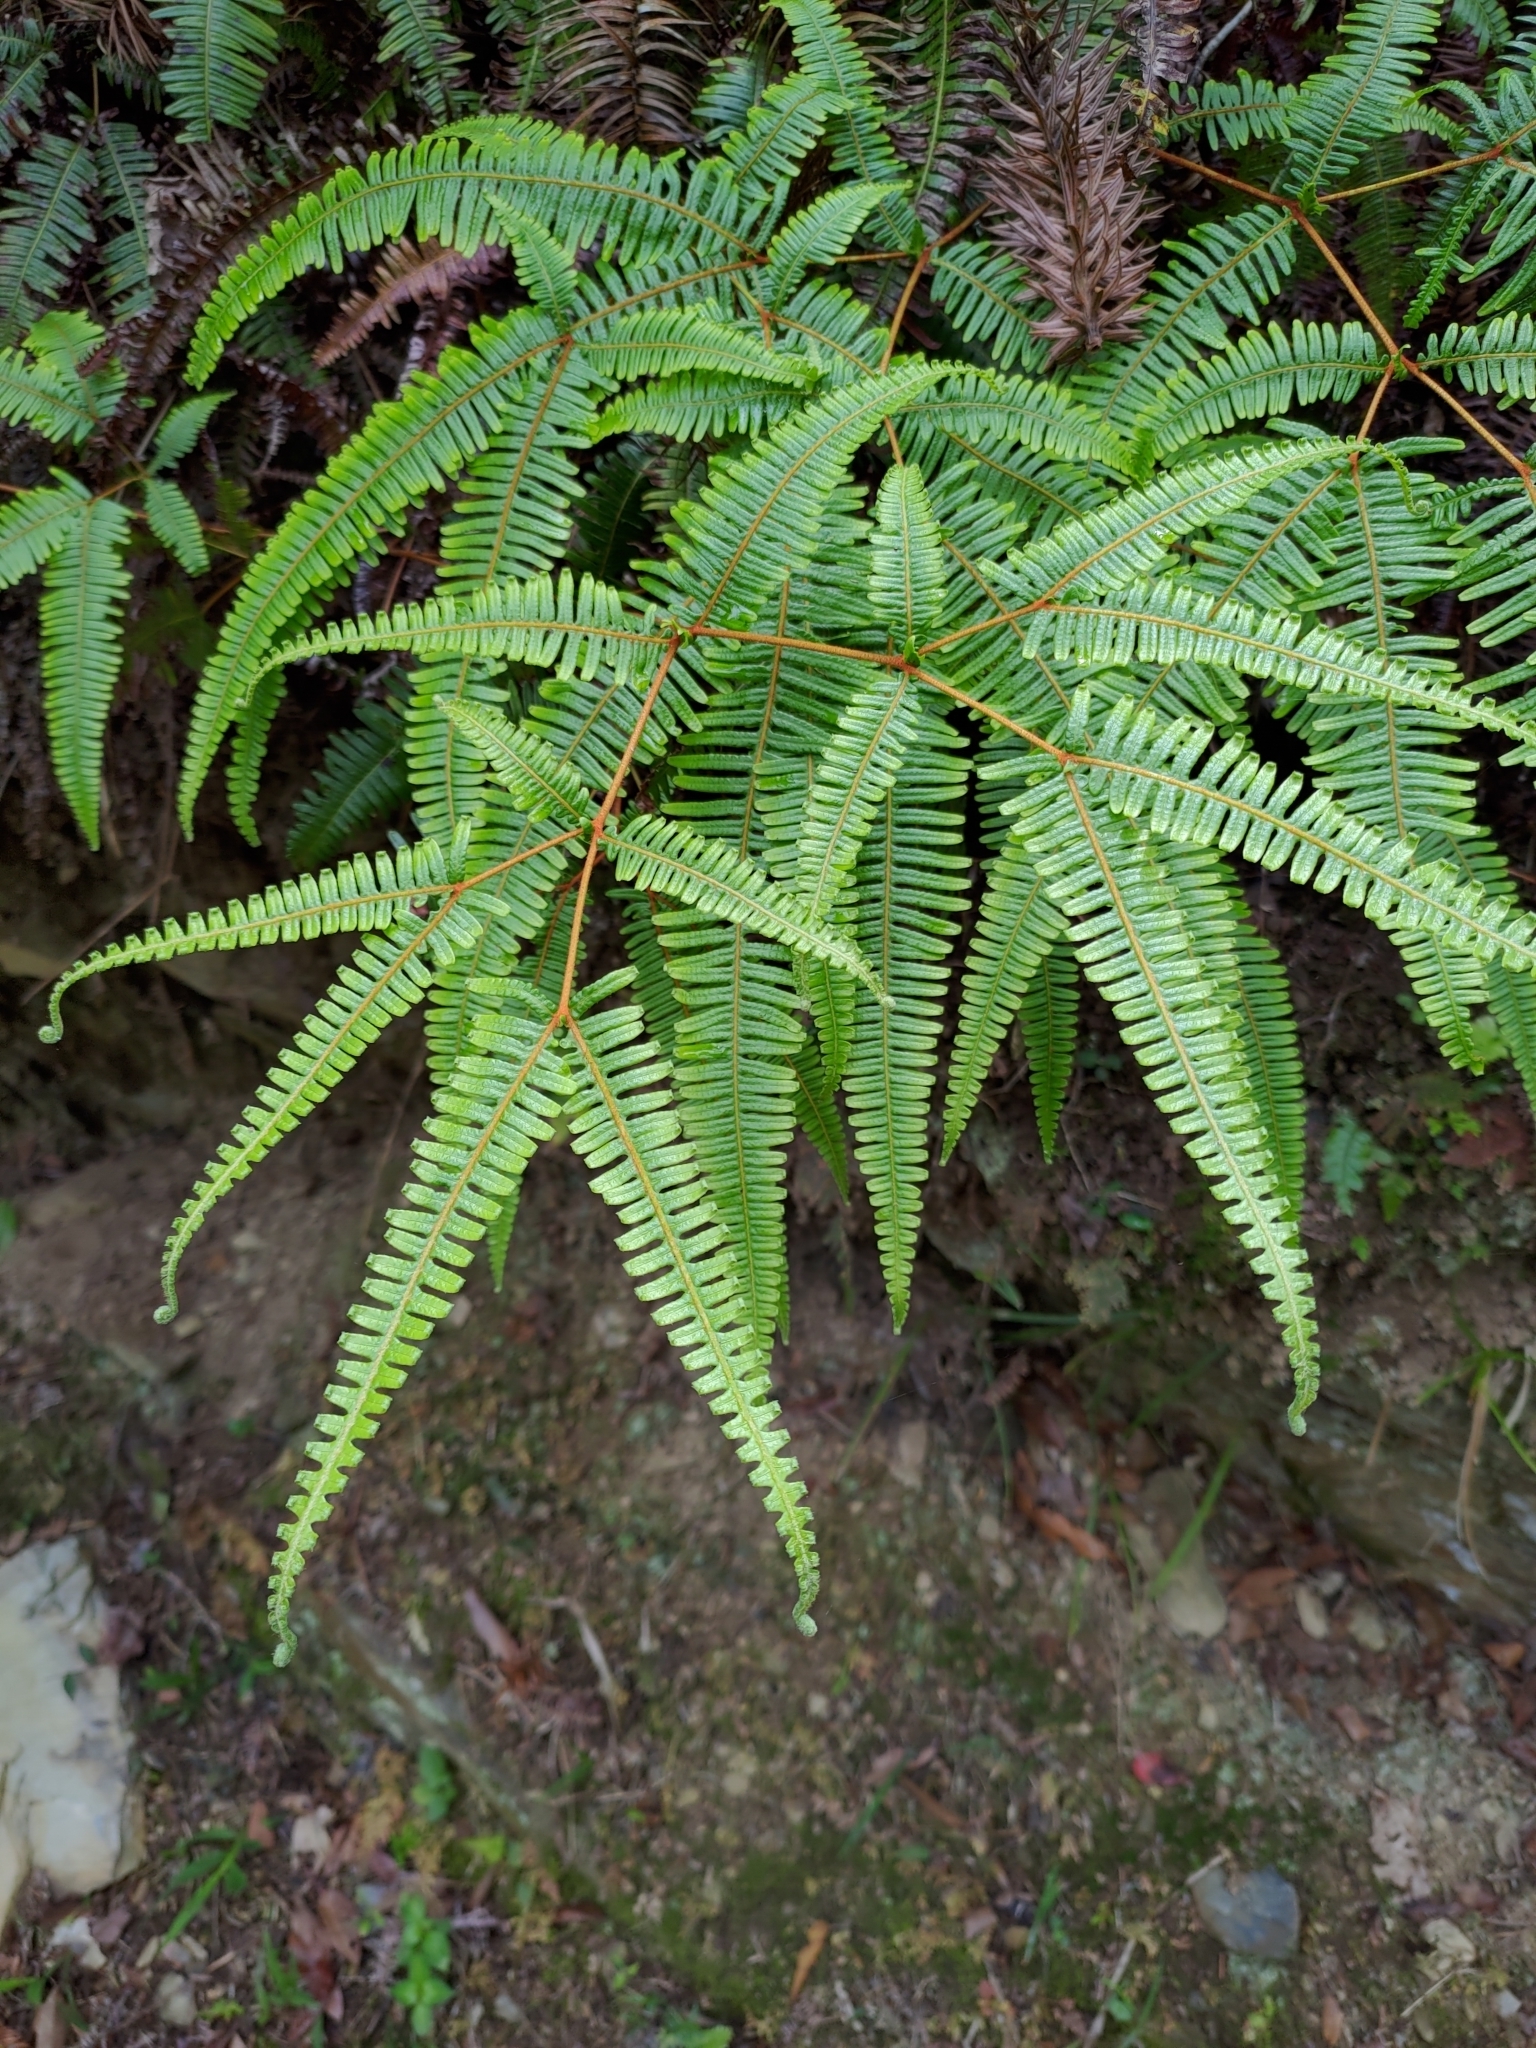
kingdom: Plantae
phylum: Tracheophyta
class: Polypodiopsida
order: Gleicheniales
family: Gleicheniaceae
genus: Dicranopteris
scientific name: Dicranopteris linearis
